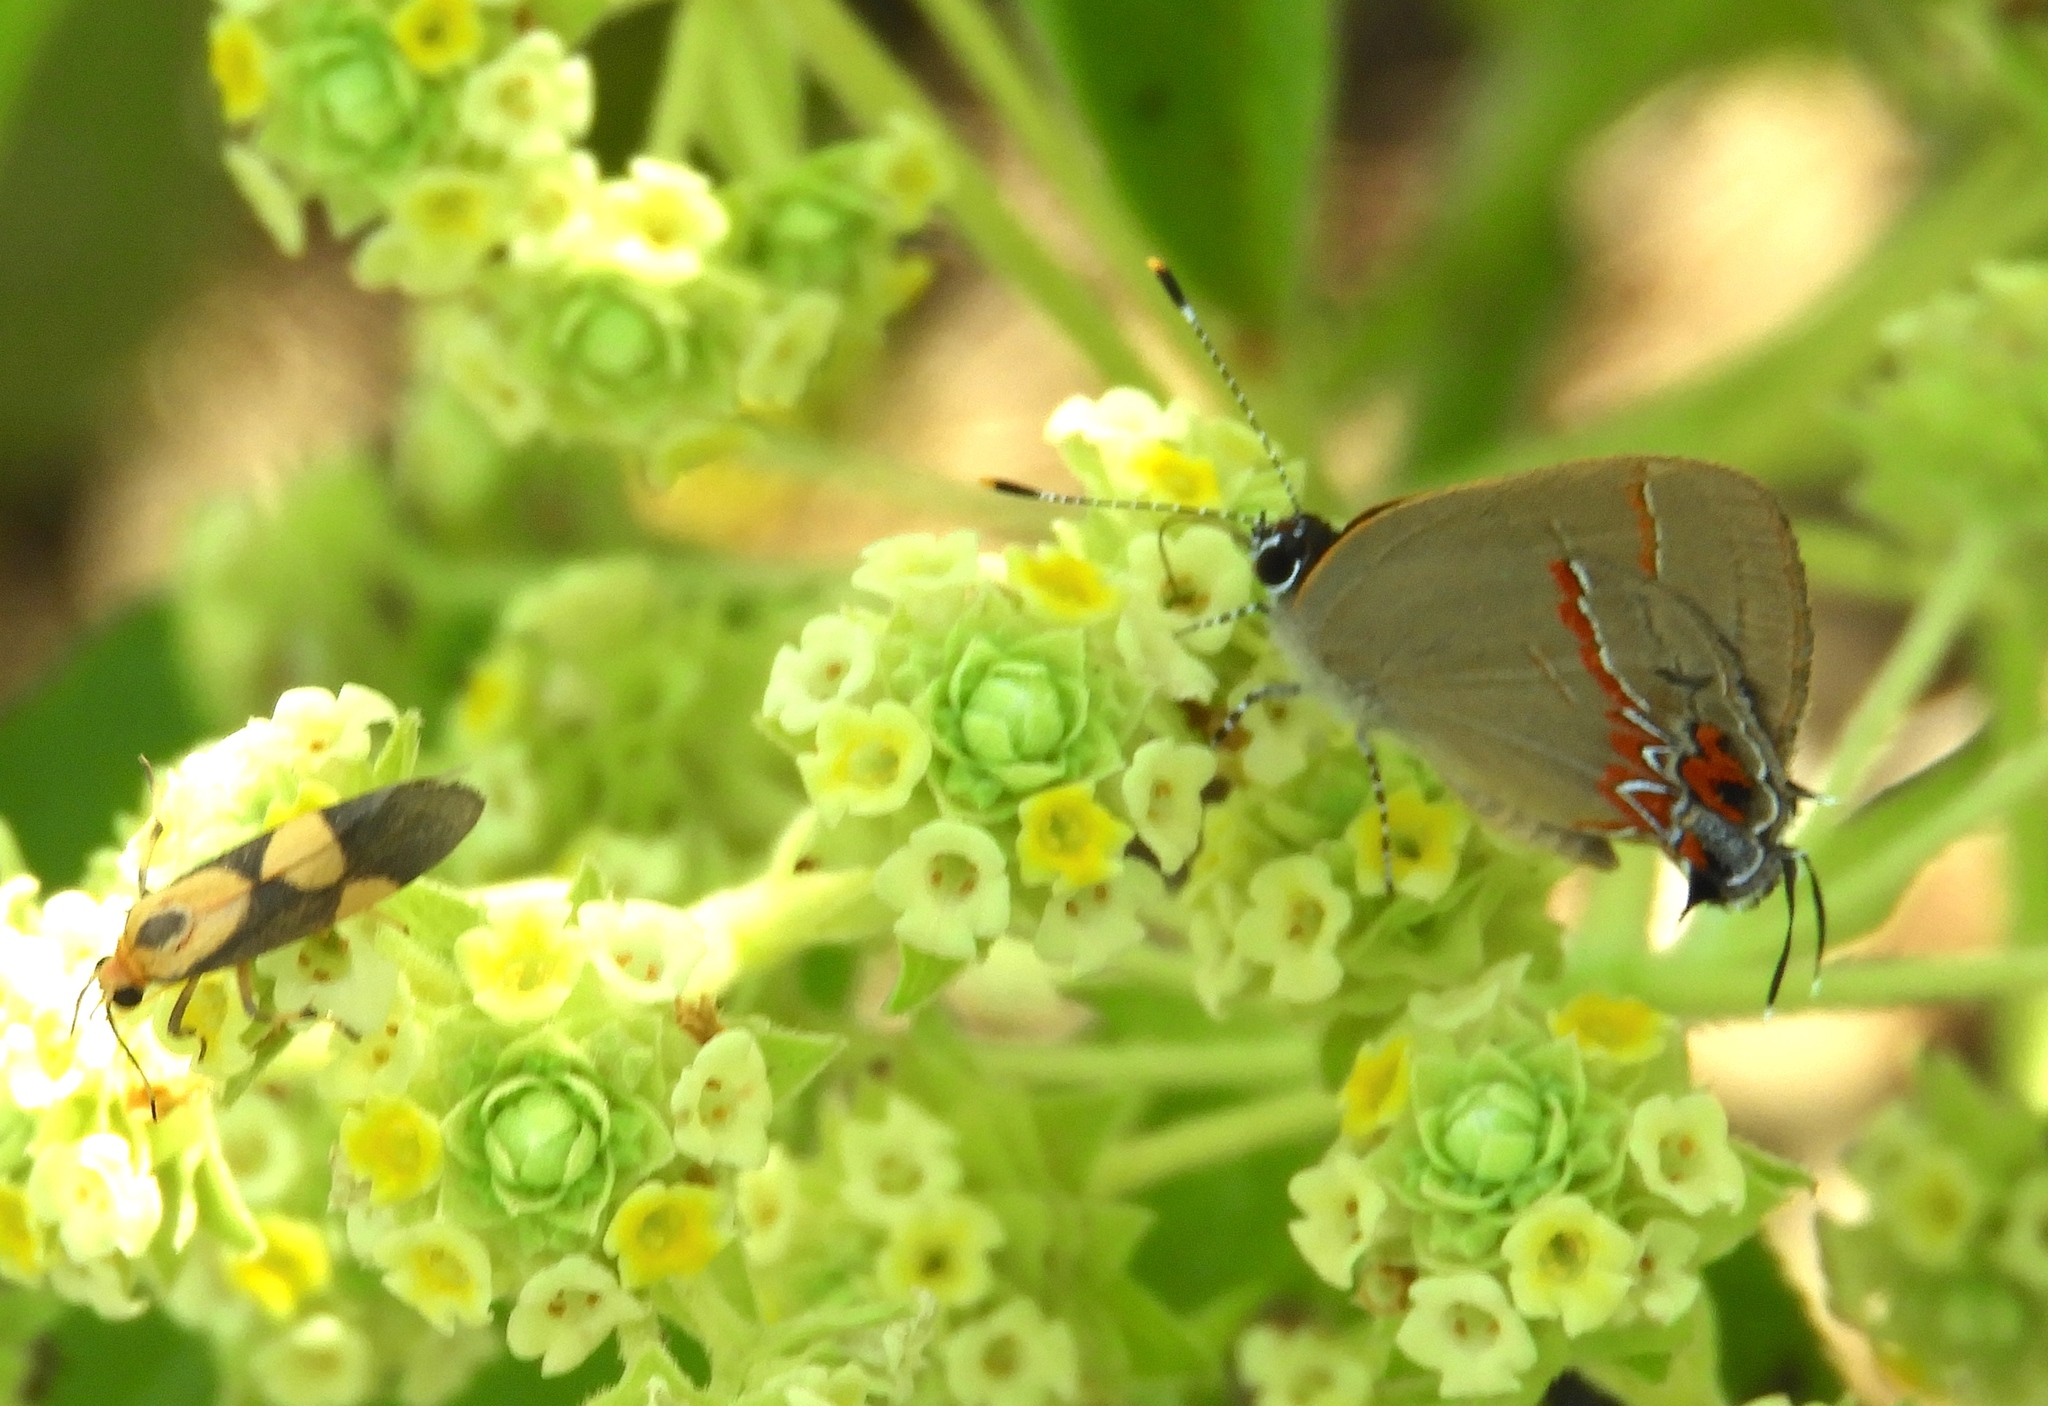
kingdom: Animalia
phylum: Arthropoda
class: Insecta
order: Lepidoptera
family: Lycaenidae
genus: Calycopis
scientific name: Calycopis
